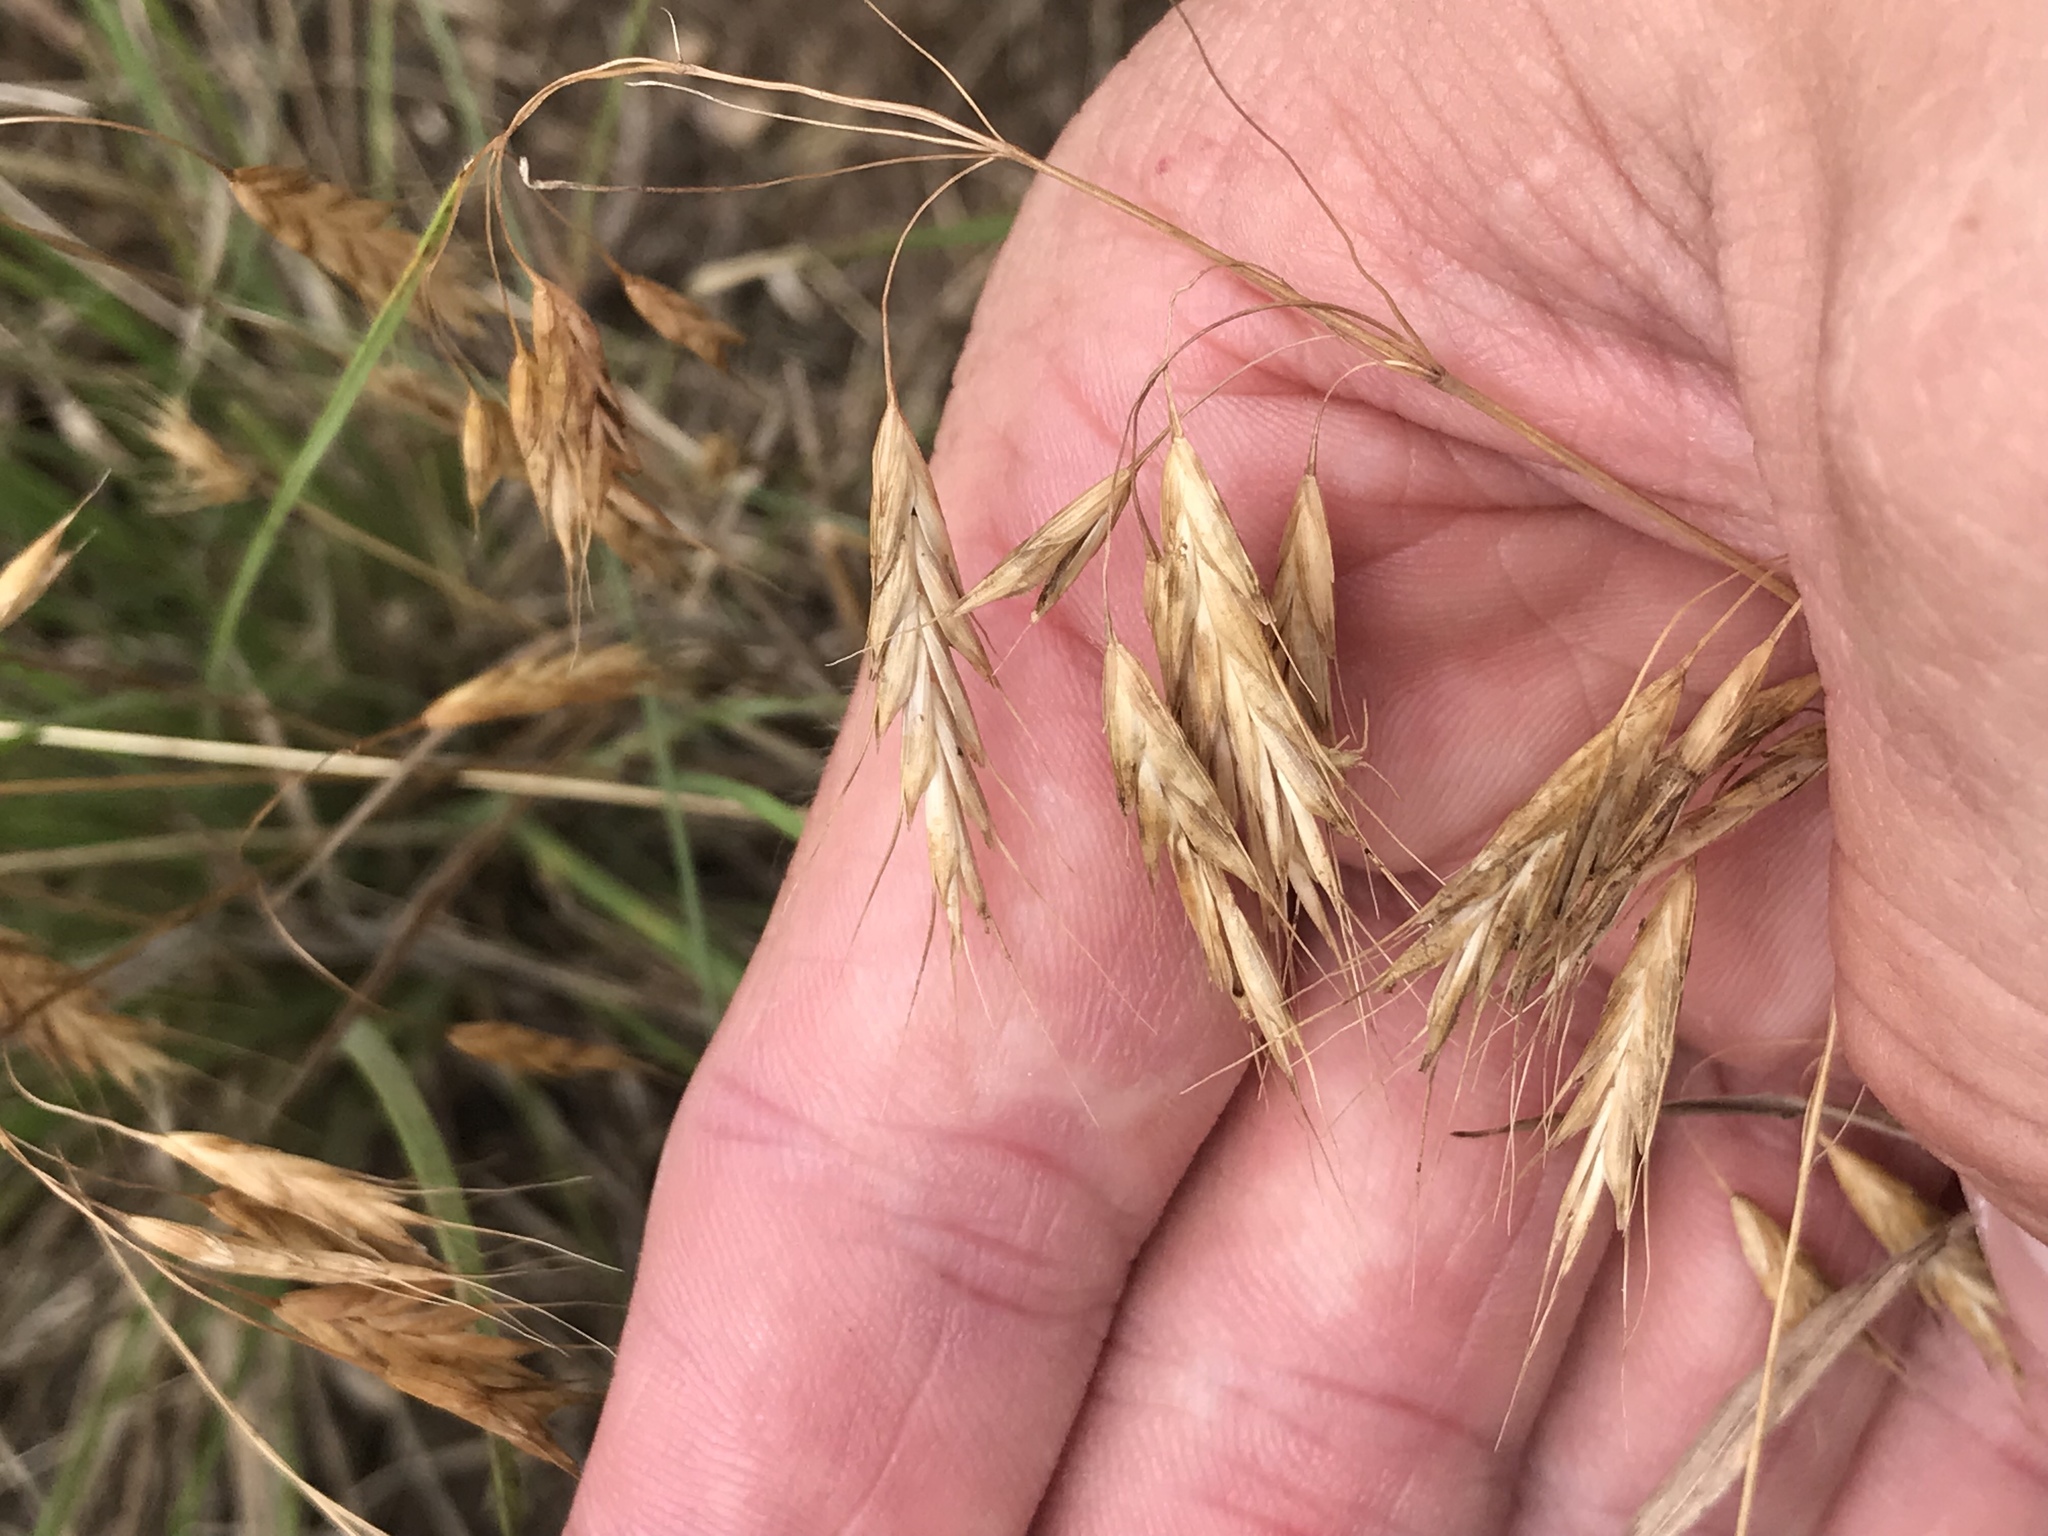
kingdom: Plantae
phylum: Tracheophyta
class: Liliopsida
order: Poales
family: Poaceae
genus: Bromus
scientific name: Bromus japonicus
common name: Japanese brome
